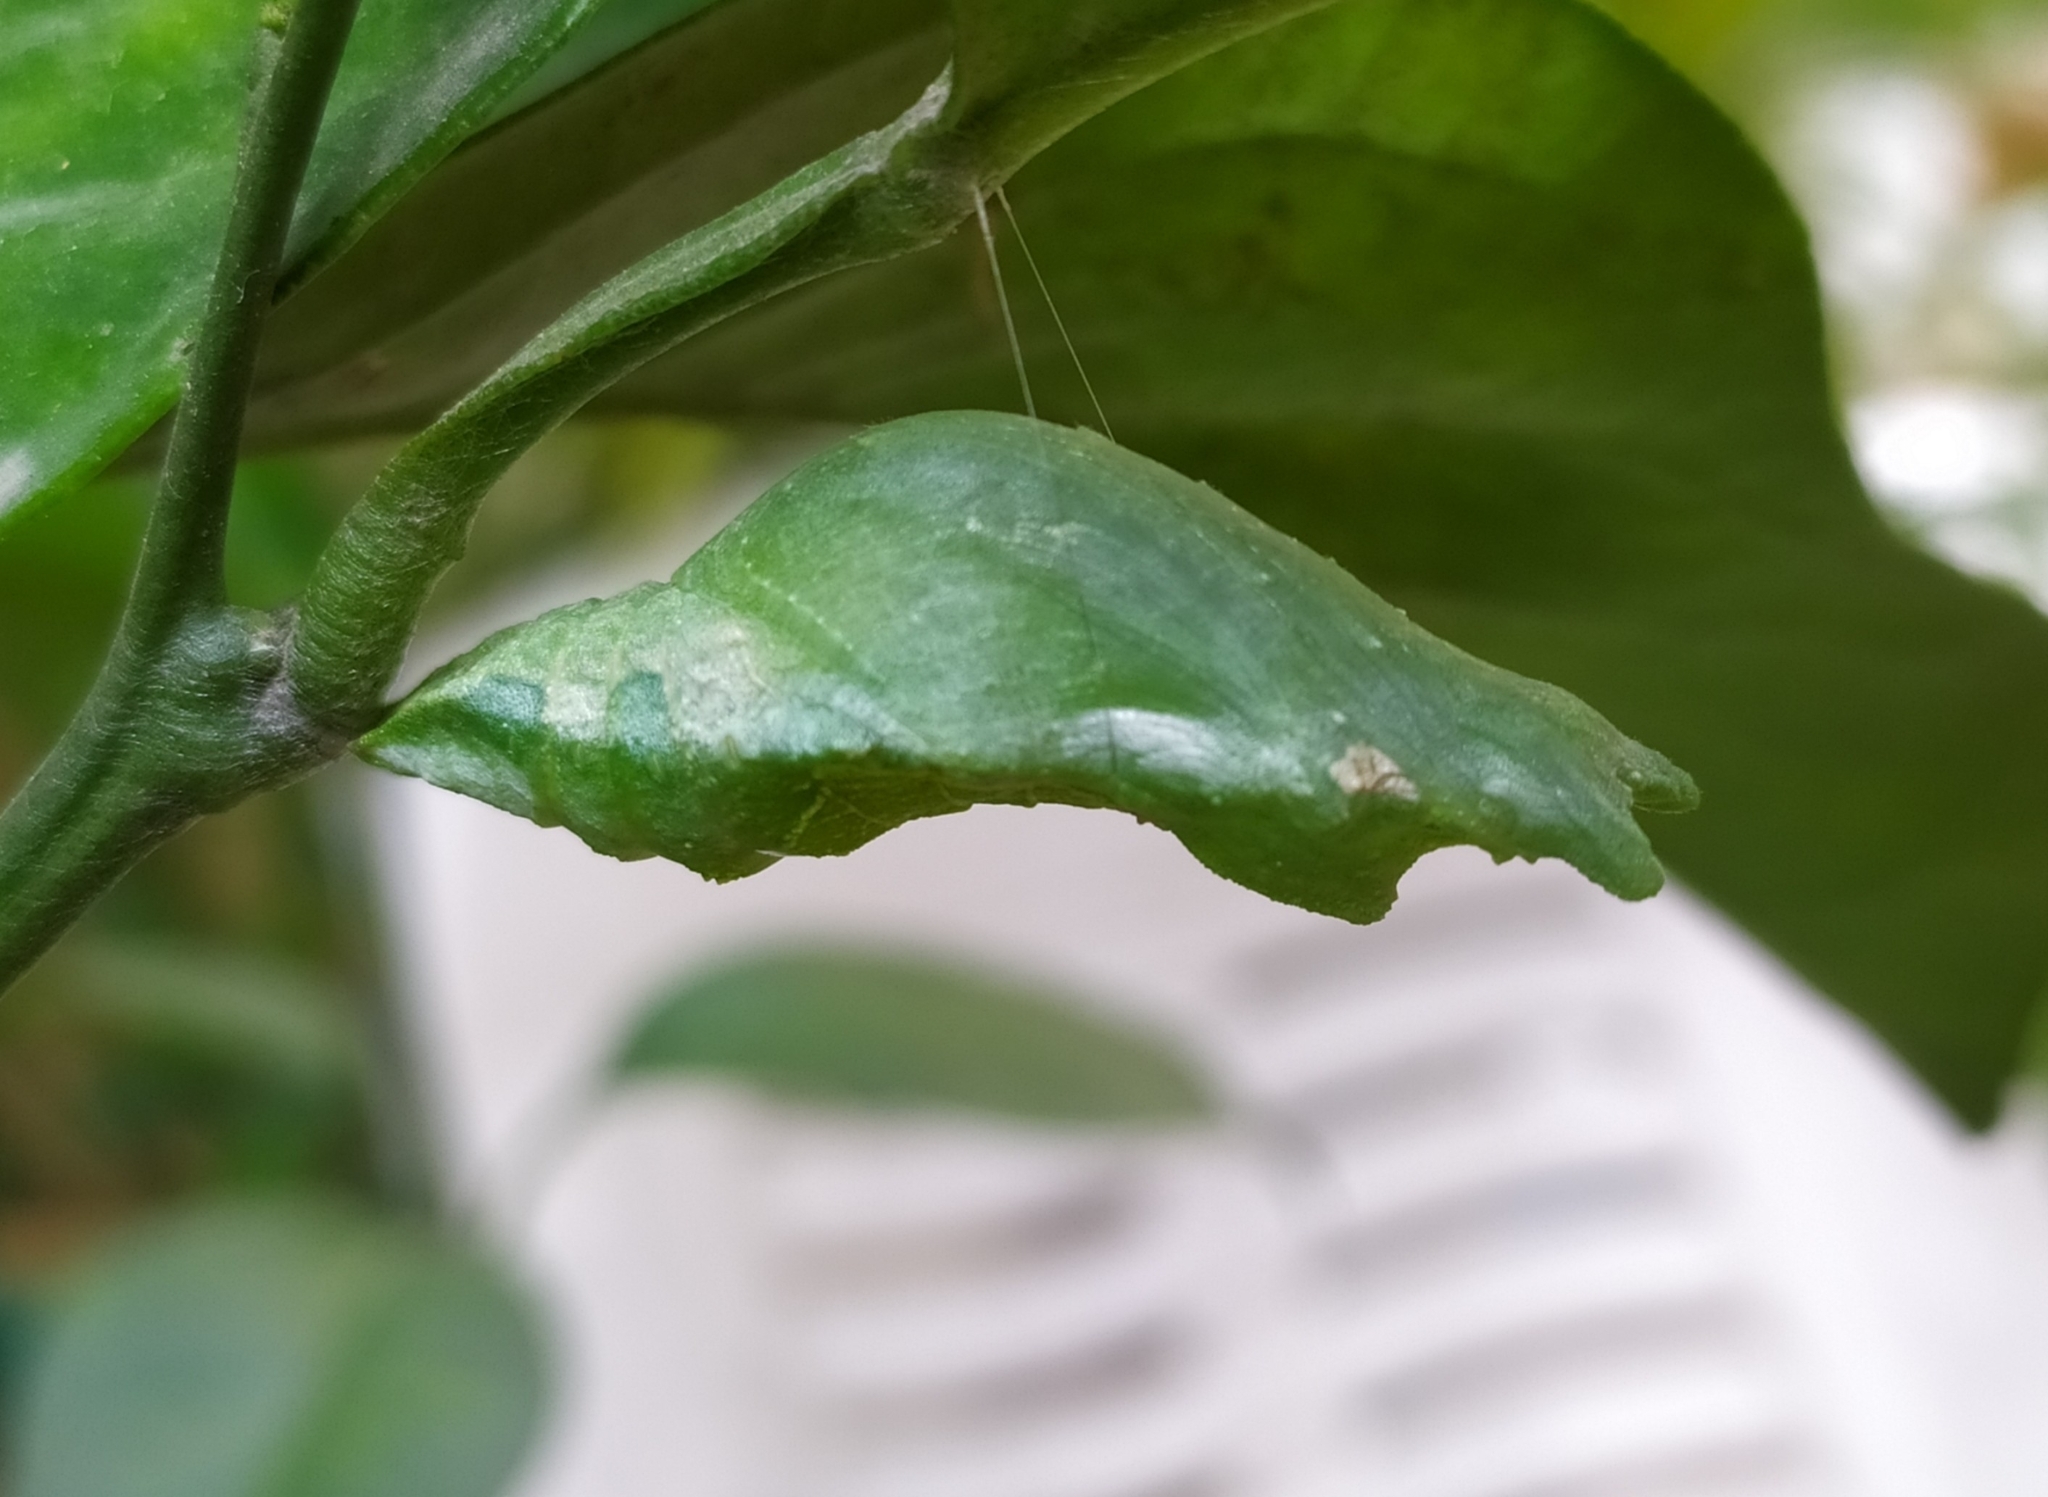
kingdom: Animalia
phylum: Arthropoda
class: Insecta
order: Lepidoptera
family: Papilionidae
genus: Papilio
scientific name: Papilio polytes
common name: Common mormon
